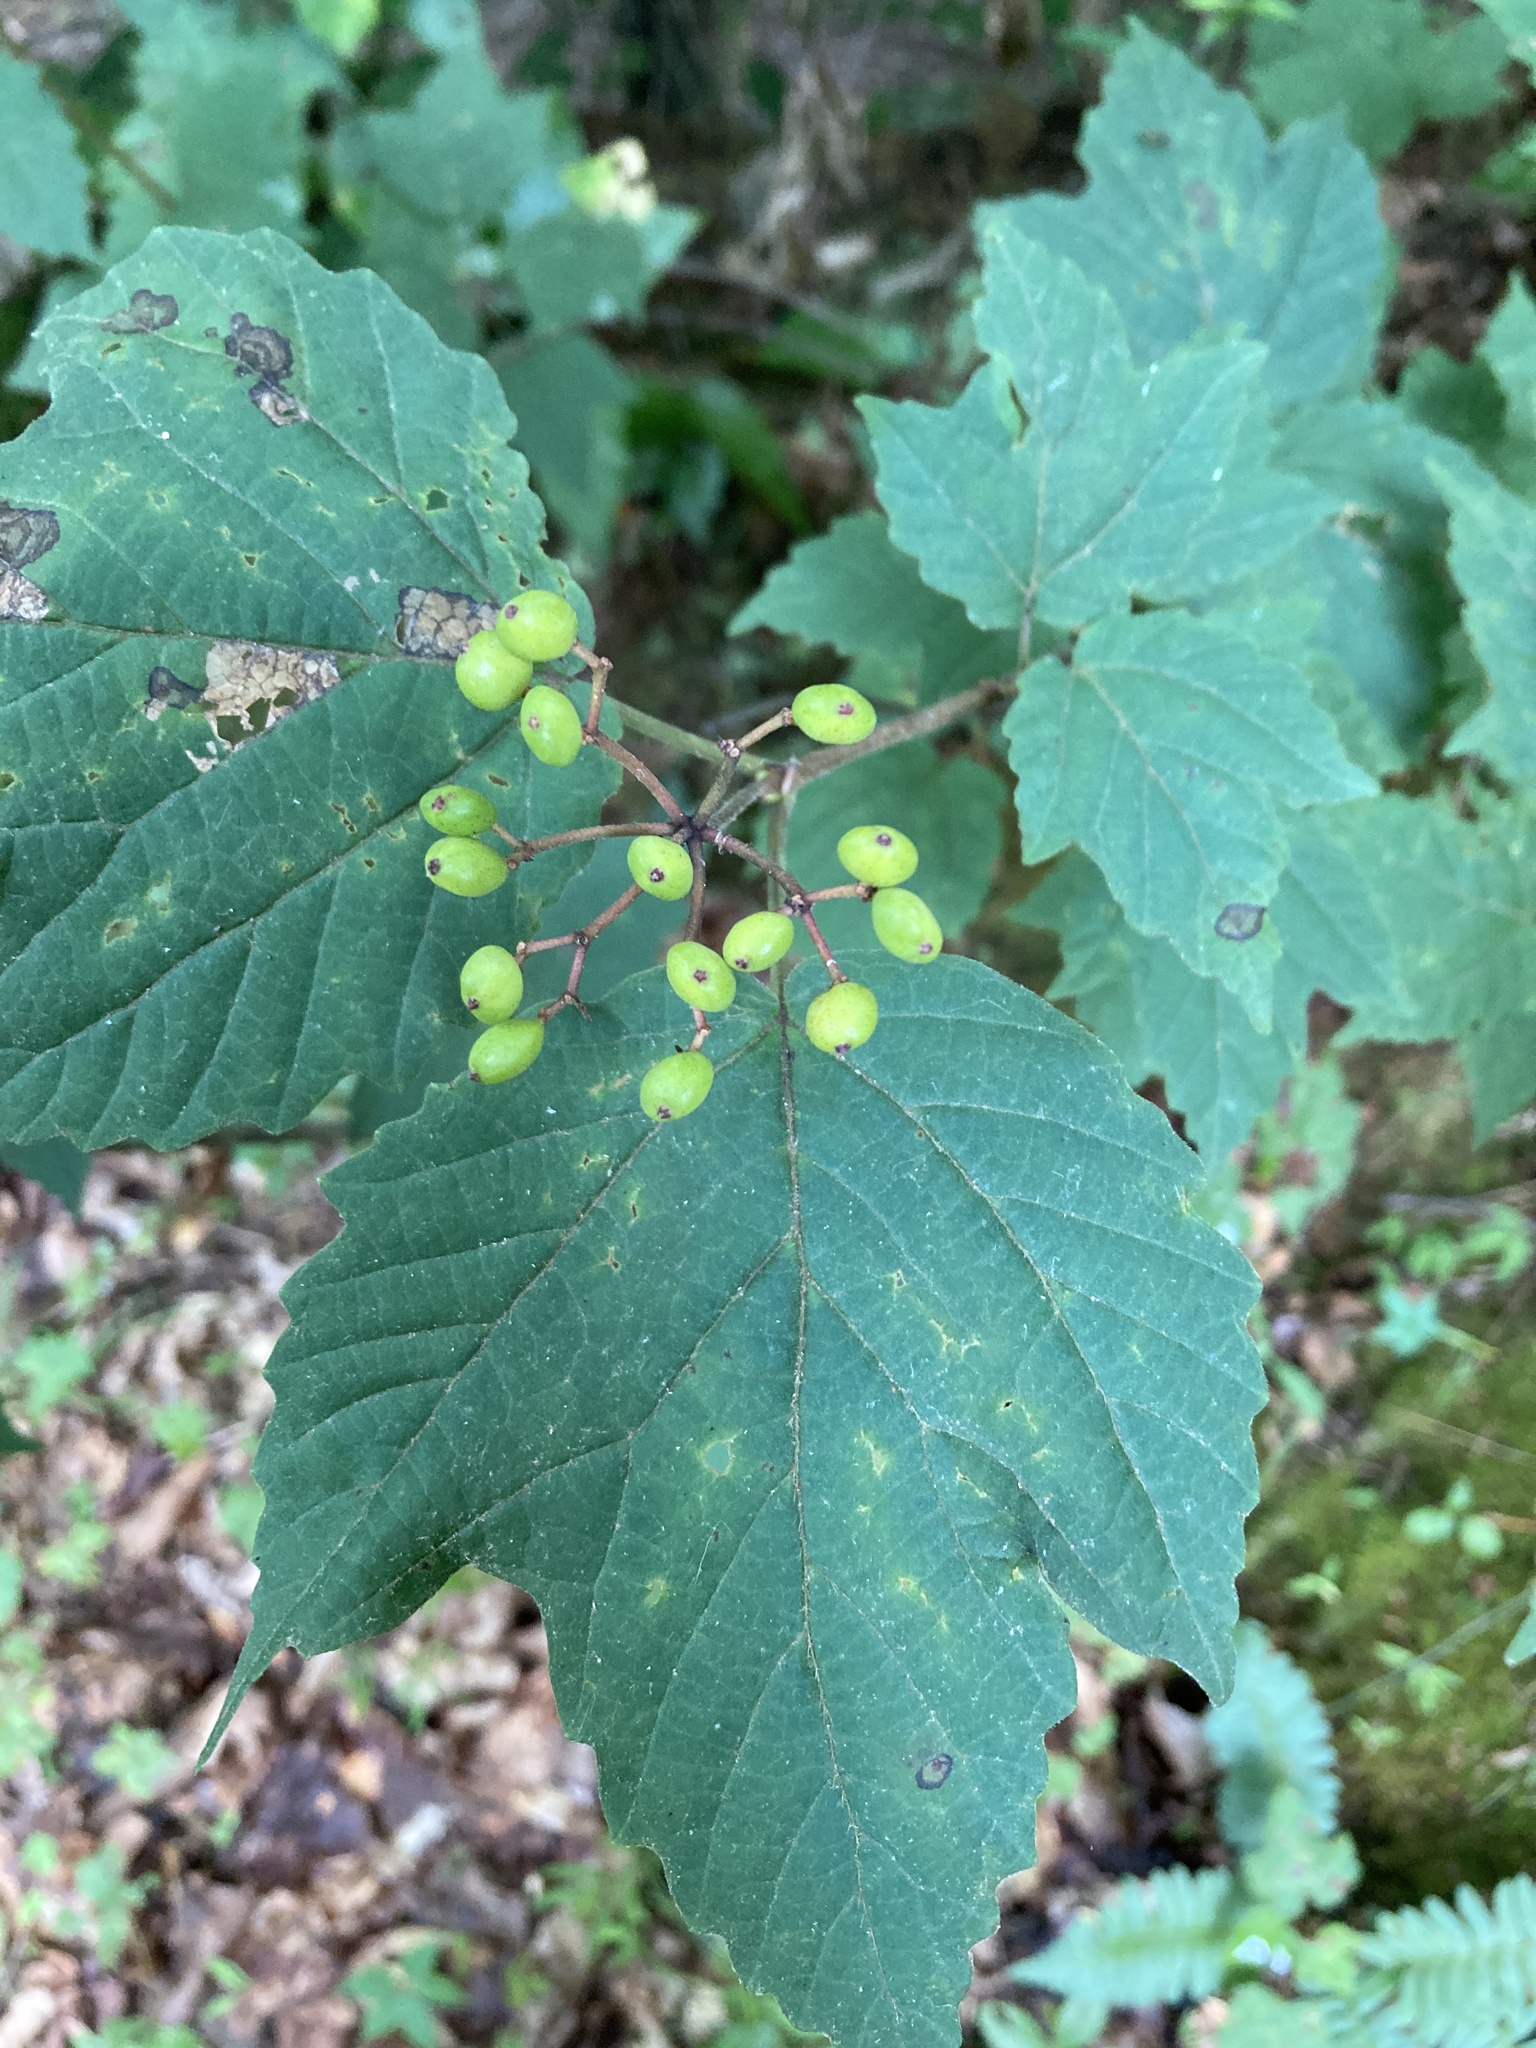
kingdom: Plantae
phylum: Tracheophyta
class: Magnoliopsida
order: Dipsacales
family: Viburnaceae
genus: Viburnum
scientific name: Viburnum acerifolium
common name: Dockmackie
